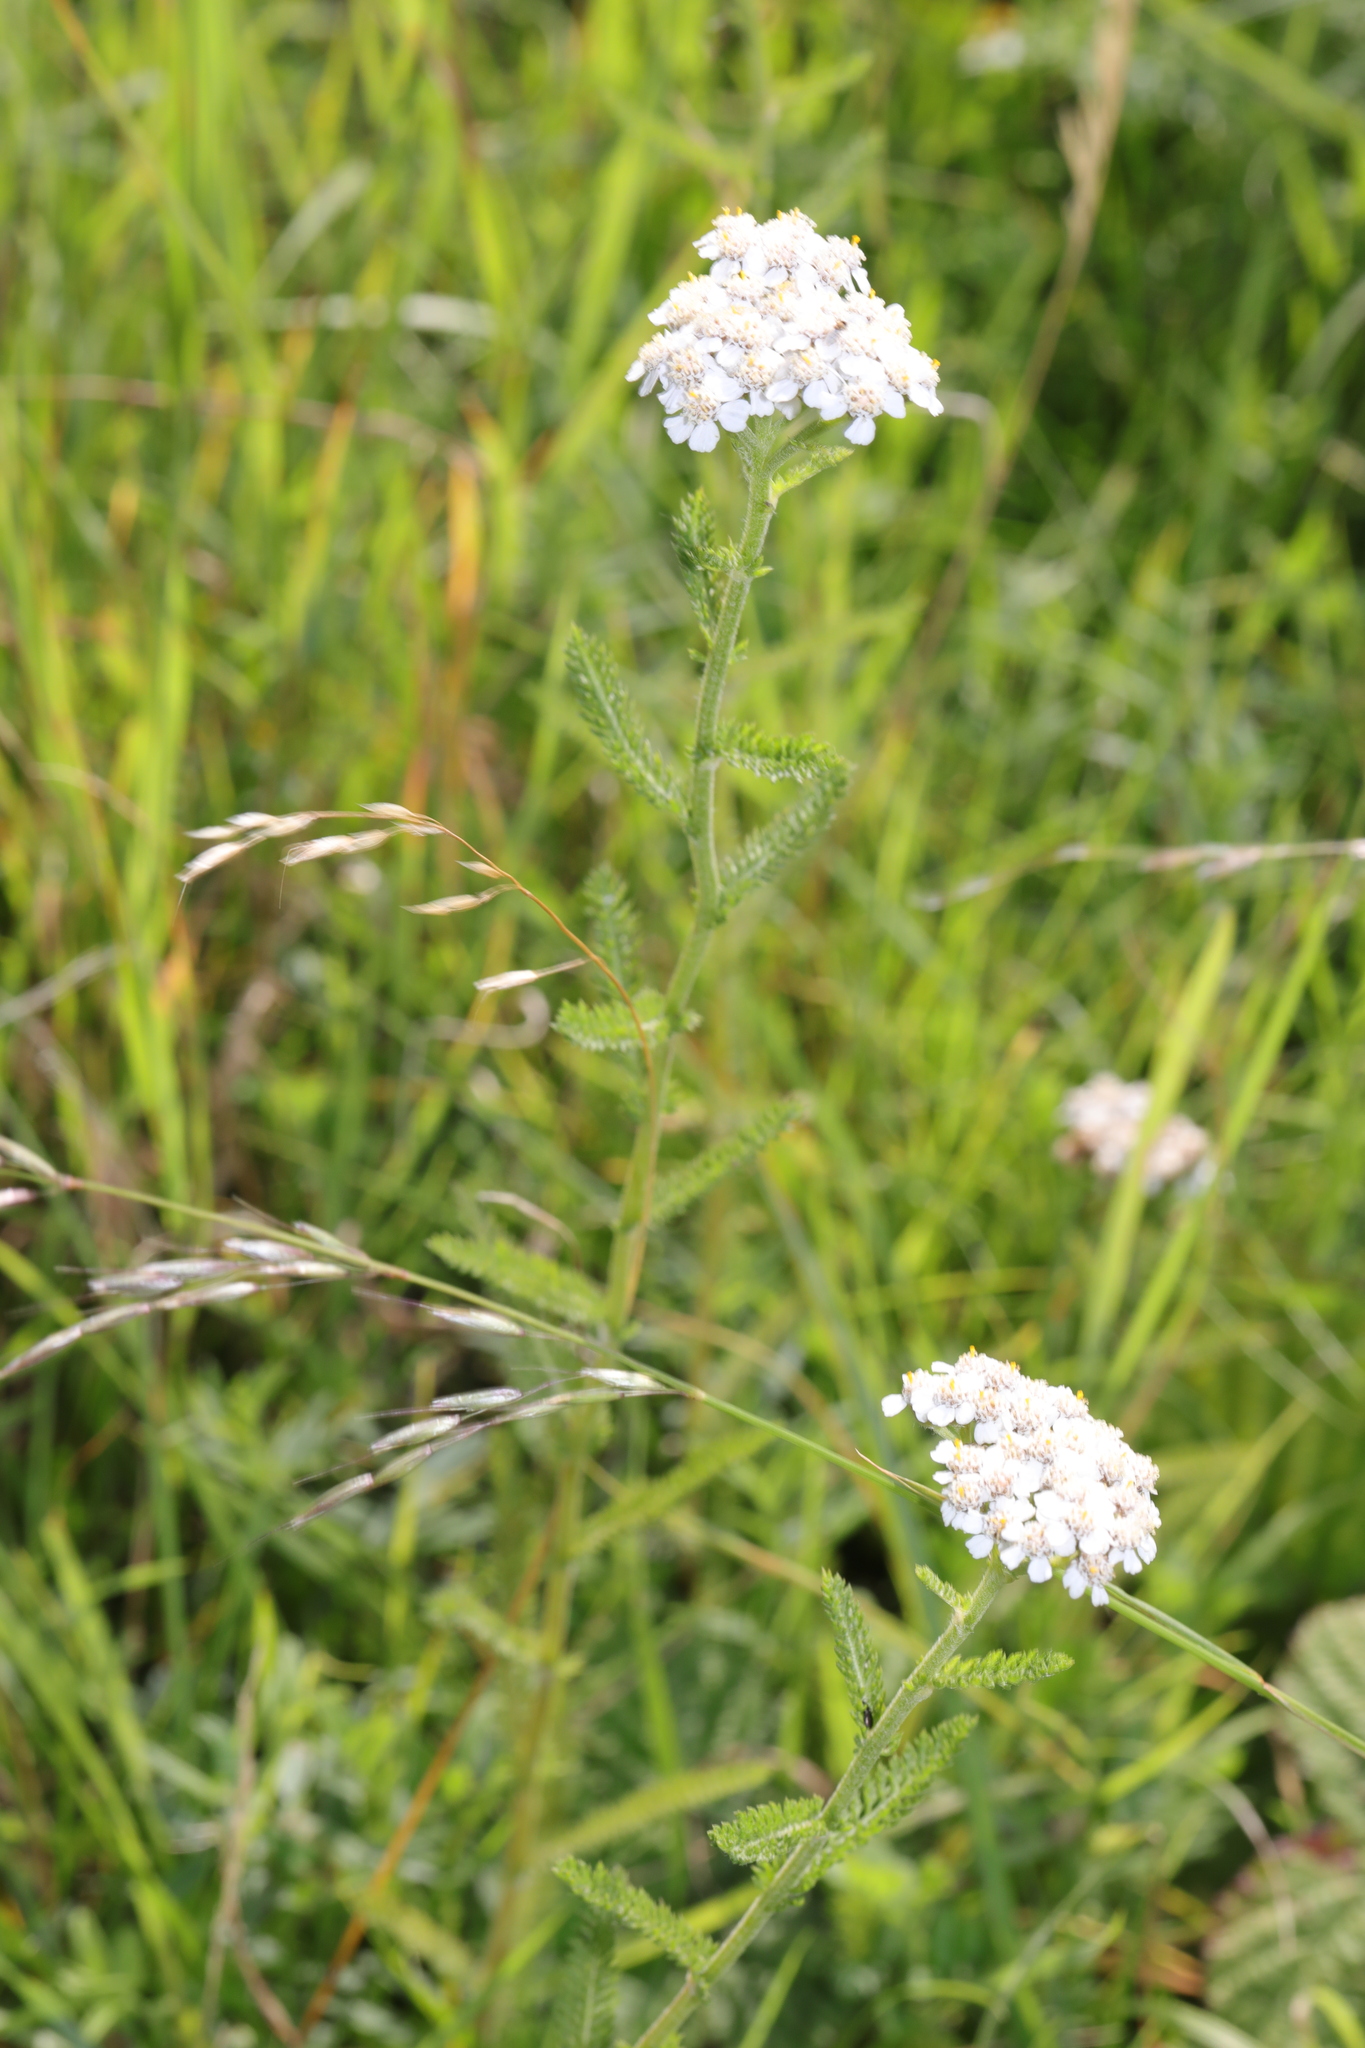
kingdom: Plantae
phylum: Tracheophyta
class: Magnoliopsida
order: Asterales
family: Asteraceae
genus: Achillea
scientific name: Achillea millefolium
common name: Yarrow
